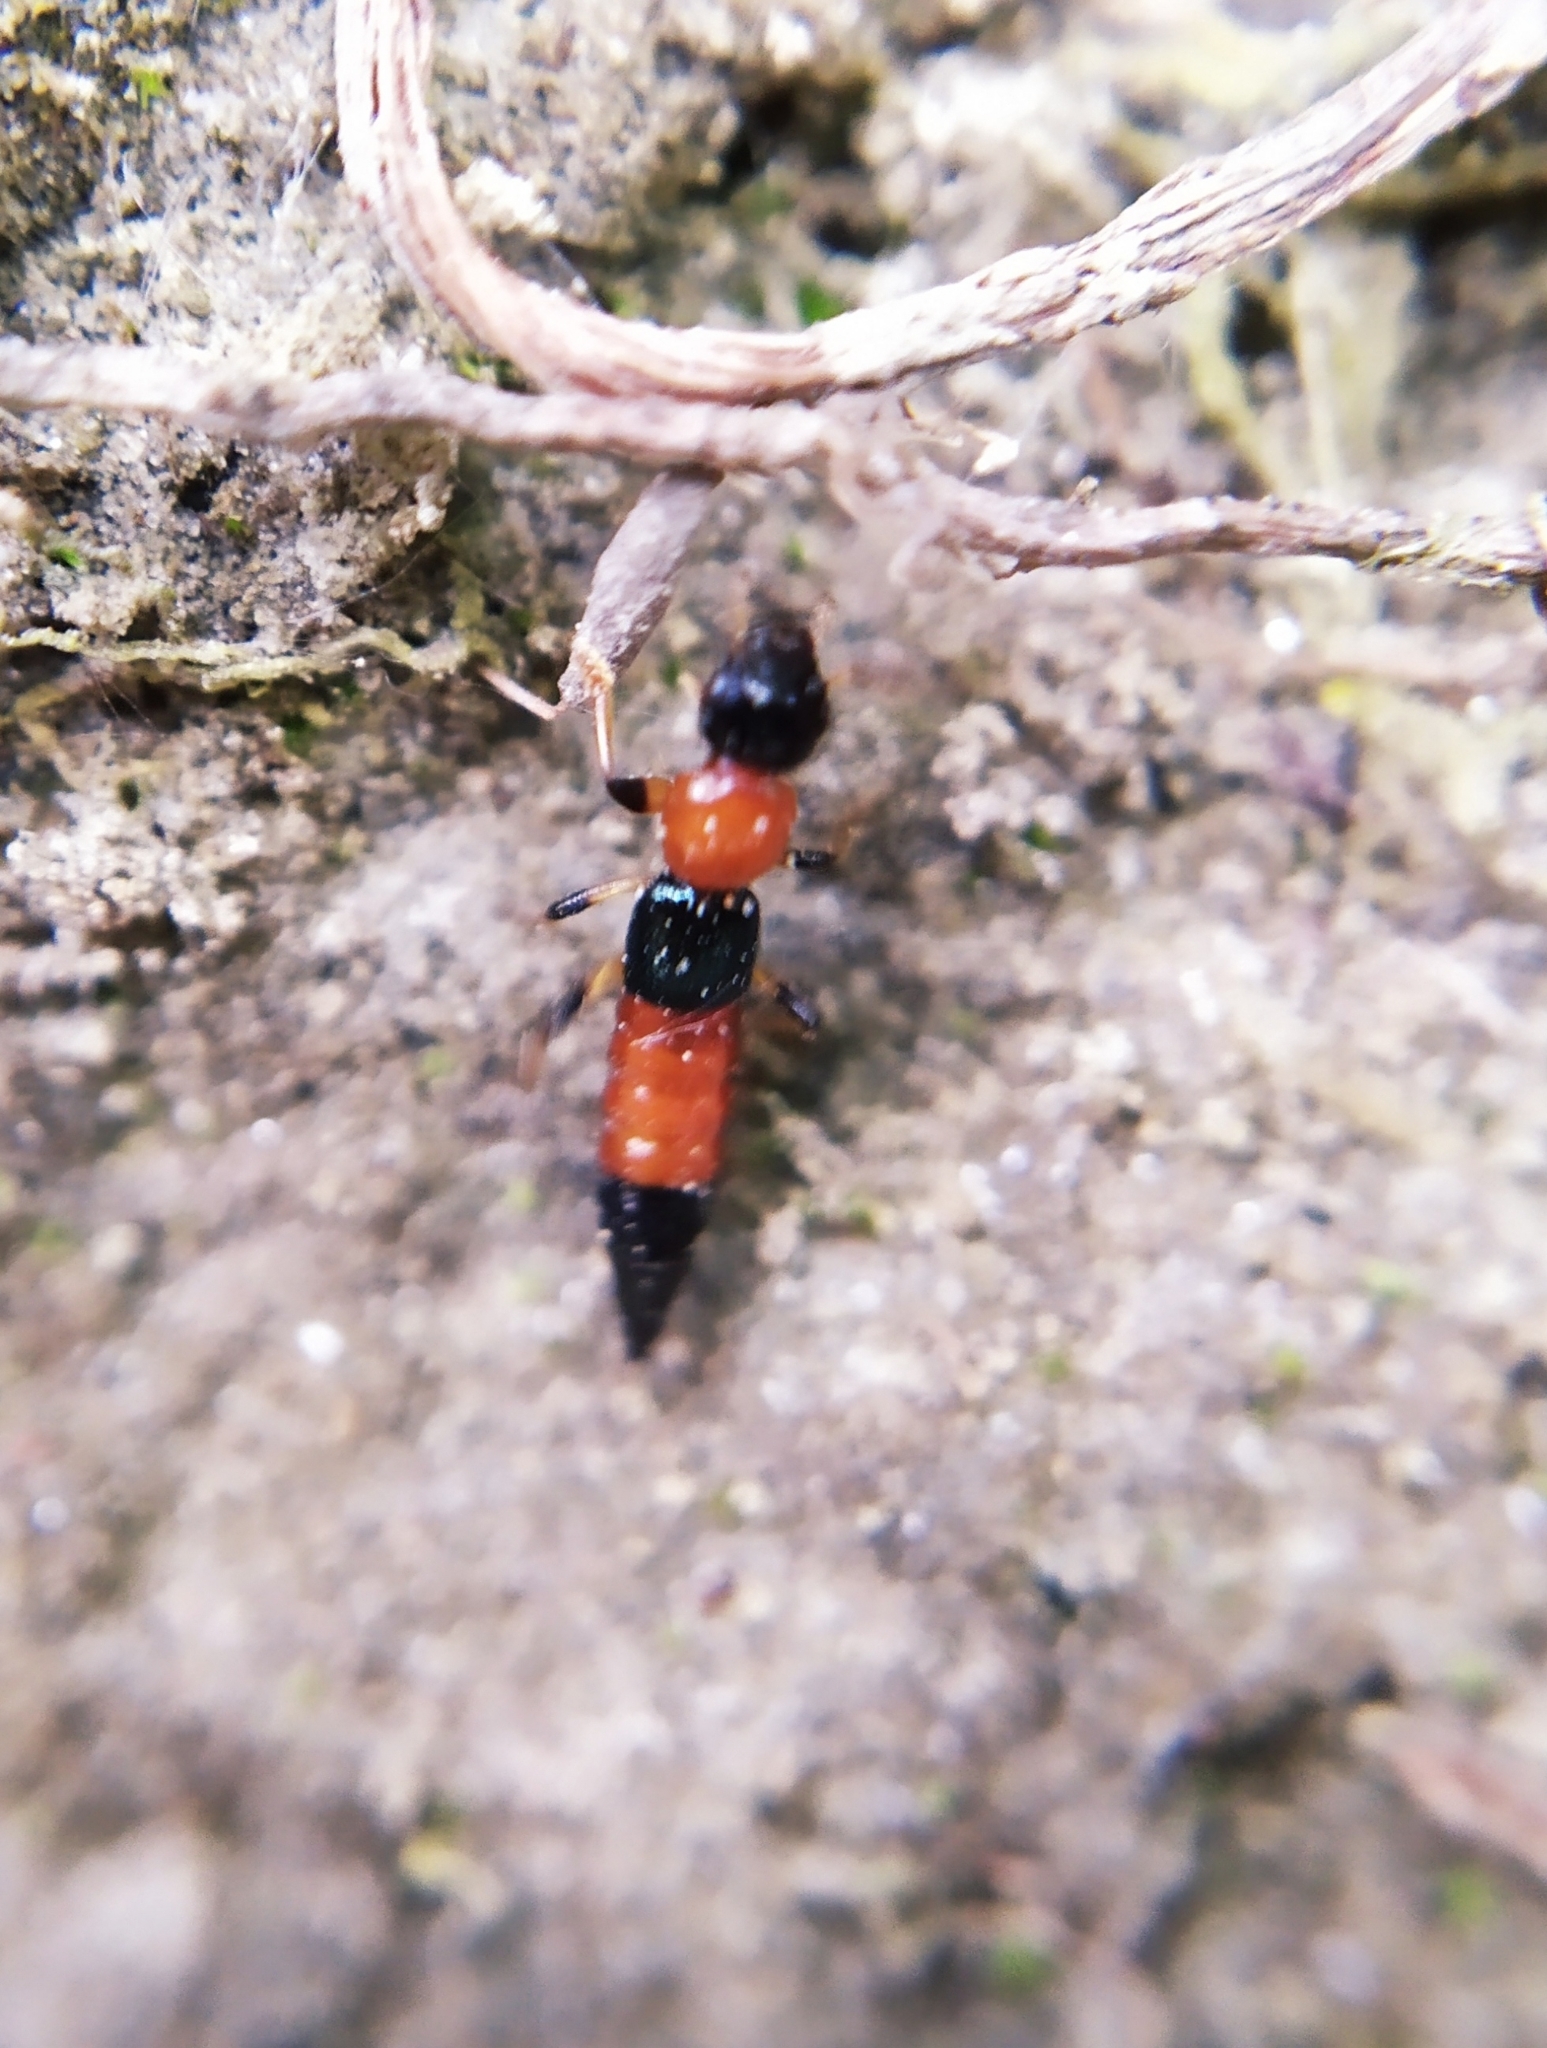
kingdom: Animalia
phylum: Arthropoda
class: Insecta
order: Coleoptera
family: Staphylinidae
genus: Paederus
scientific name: Paederus littoralis
